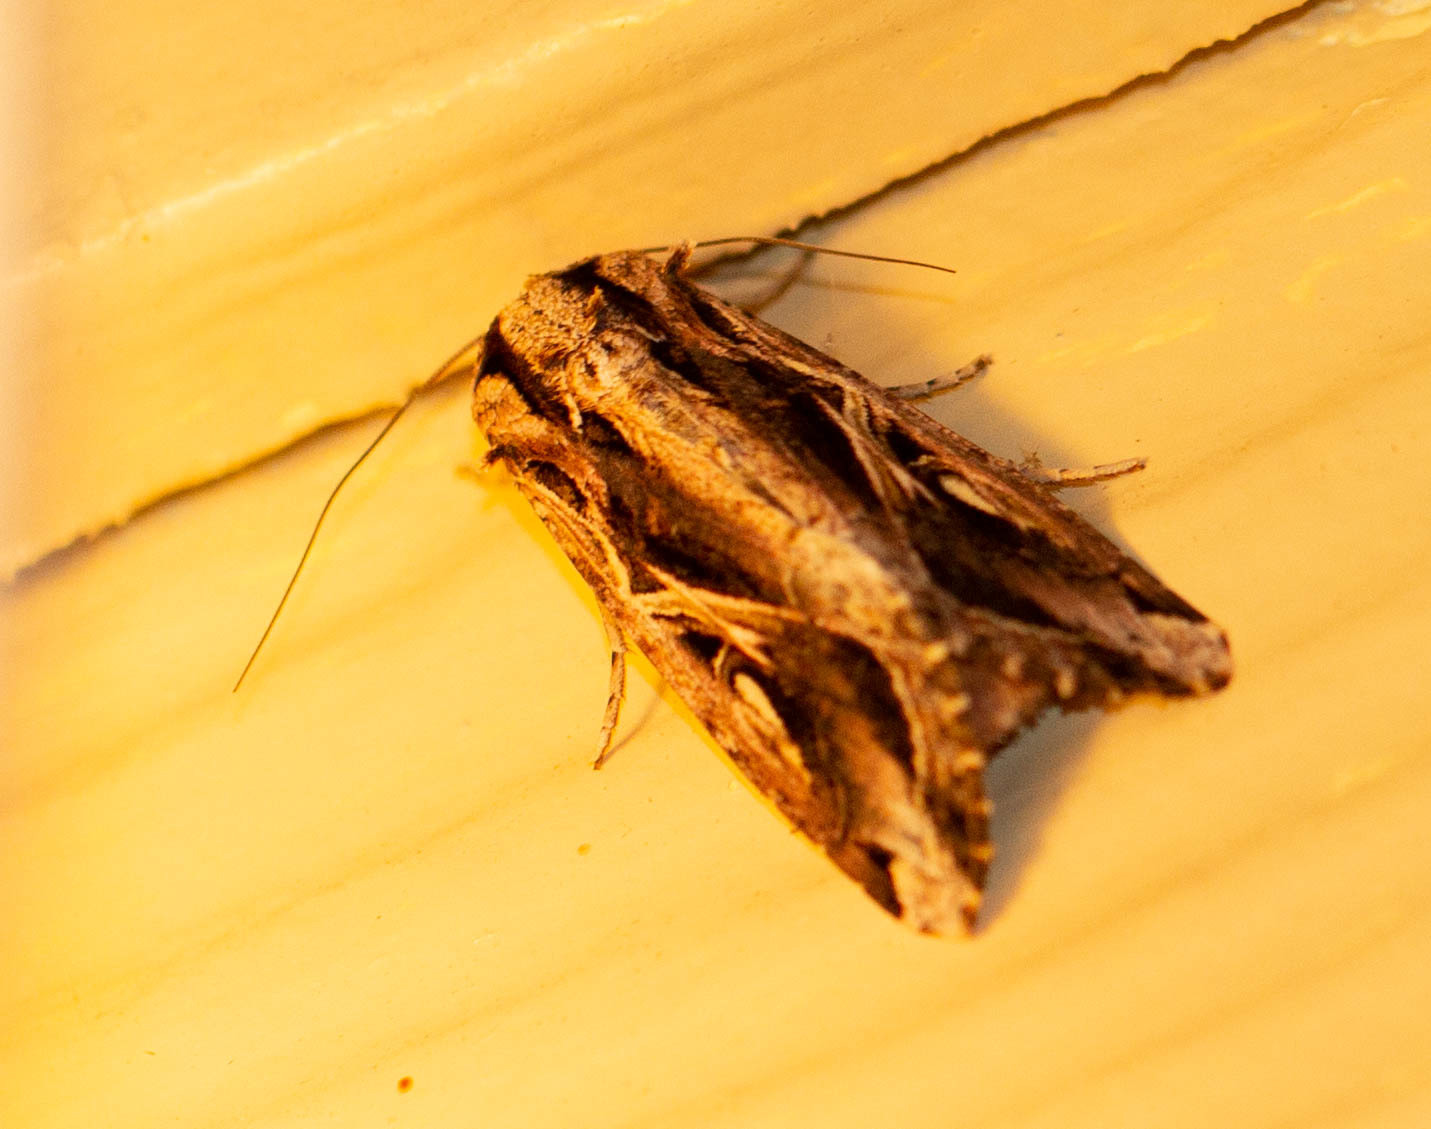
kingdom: Animalia
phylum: Arthropoda
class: Insecta
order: Lepidoptera
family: Noctuidae
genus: Spodoptera
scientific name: Spodoptera dolichos
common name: Sweetpotato armyworm
